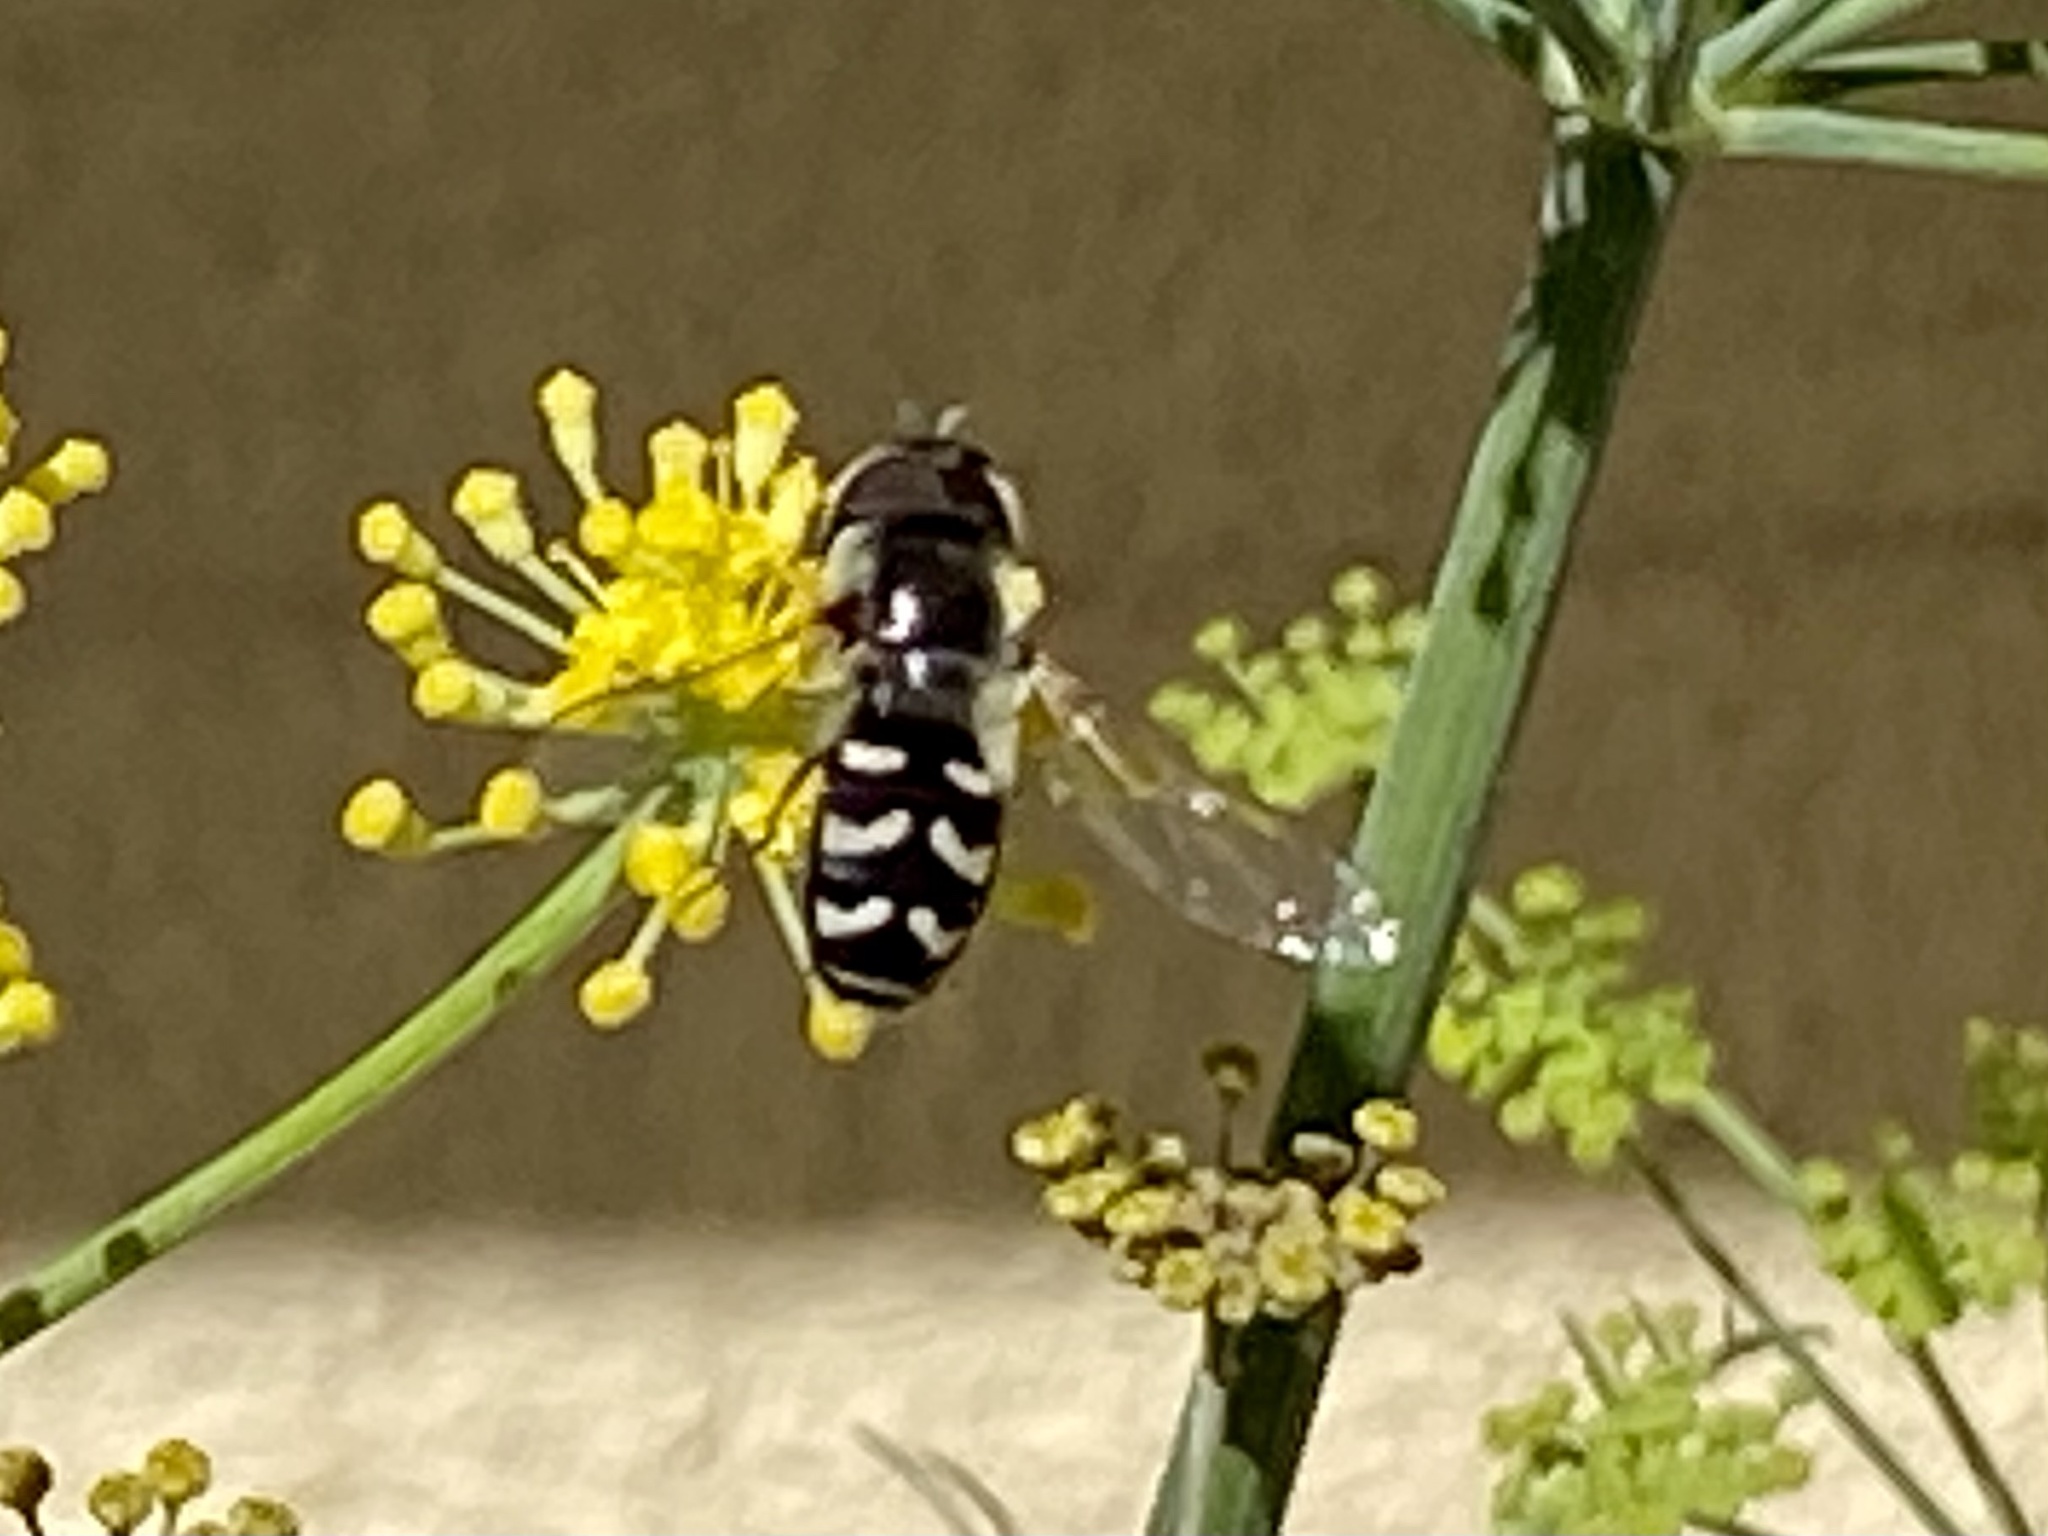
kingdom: Animalia
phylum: Arthropoda
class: Insecta
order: Diptera
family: Syrphidae
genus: Scaeva
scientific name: Scaeva affinis
